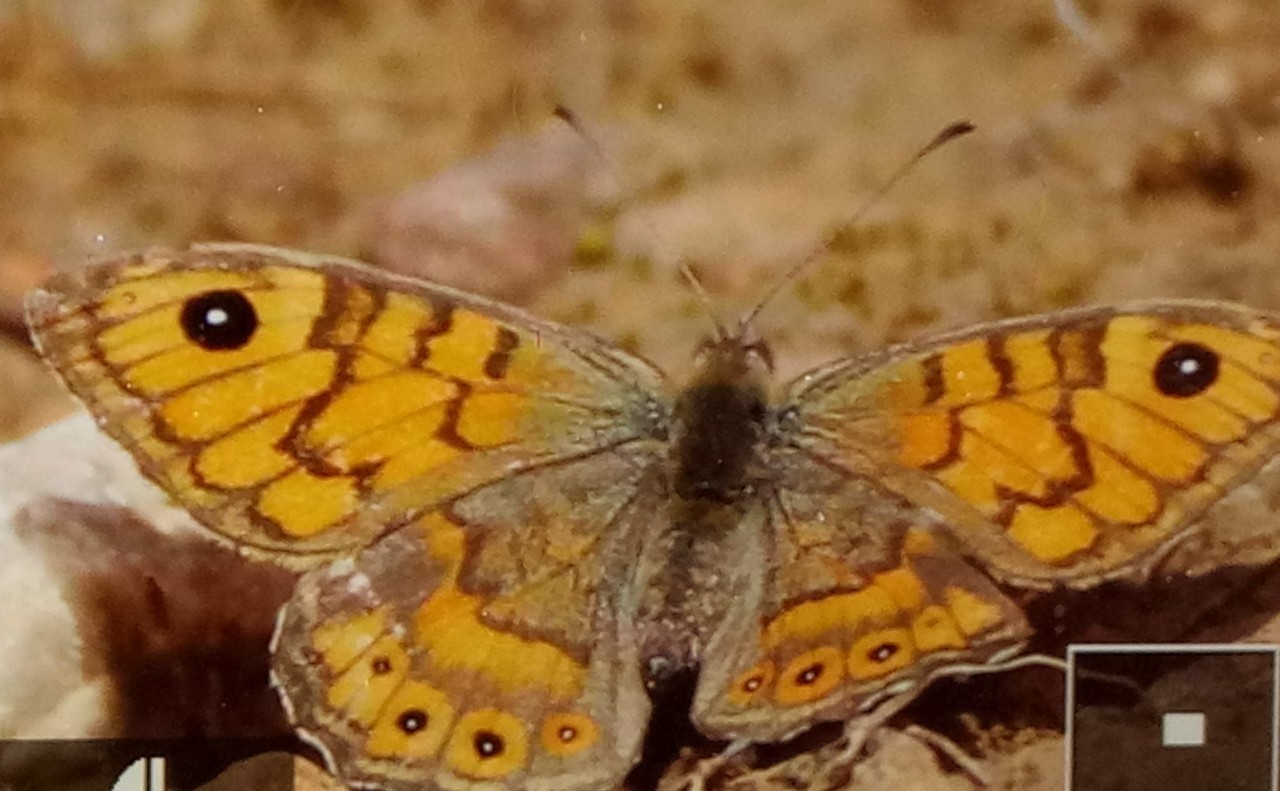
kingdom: Animalia
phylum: Arthropoda
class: Insecta
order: Lepidoptera
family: Nymphalidae
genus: Pararge
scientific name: Pararge Lasiommata megera
